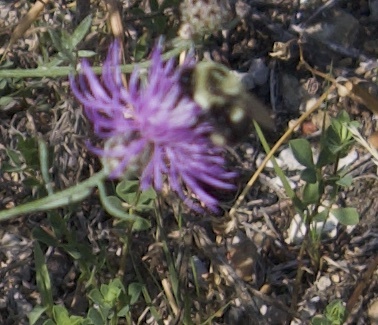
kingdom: Animalia
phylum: Arthropoda
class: Insecta
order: Hymenoptera
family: Apidae
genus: Bombus
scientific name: Bombus impatiens
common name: Common eastern bumble bee
